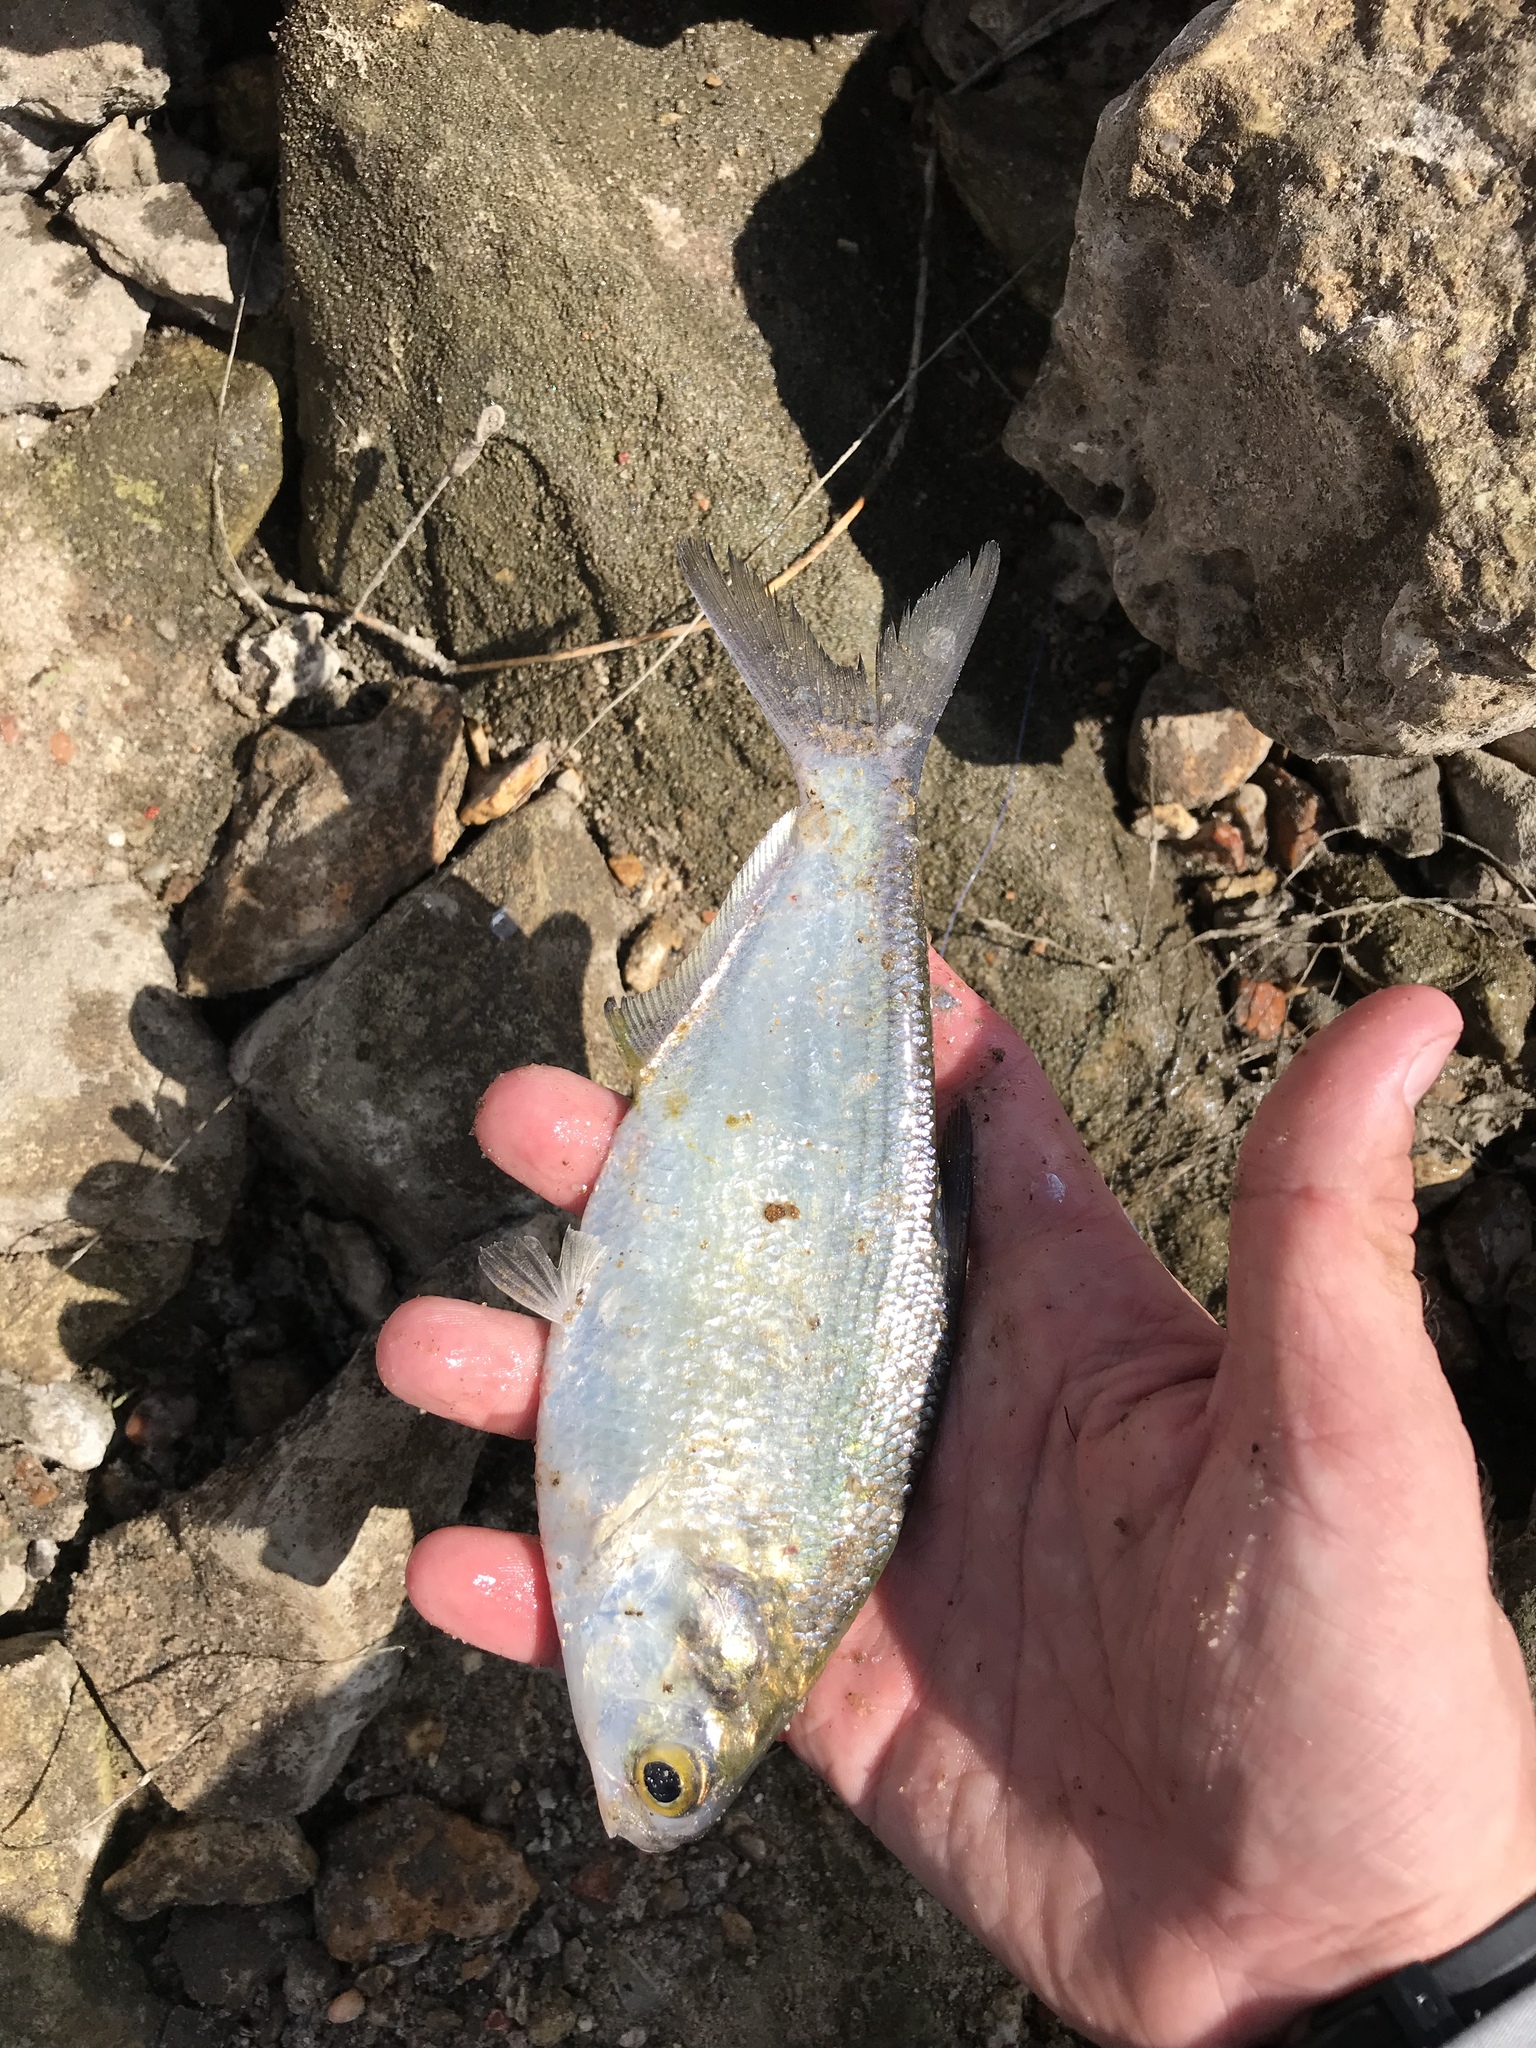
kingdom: Animalia
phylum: Chordata
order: Clupeiformes
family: Clupeidae
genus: Dorosoma
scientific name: Dorosoma cepedianum
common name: Gizzard shad
